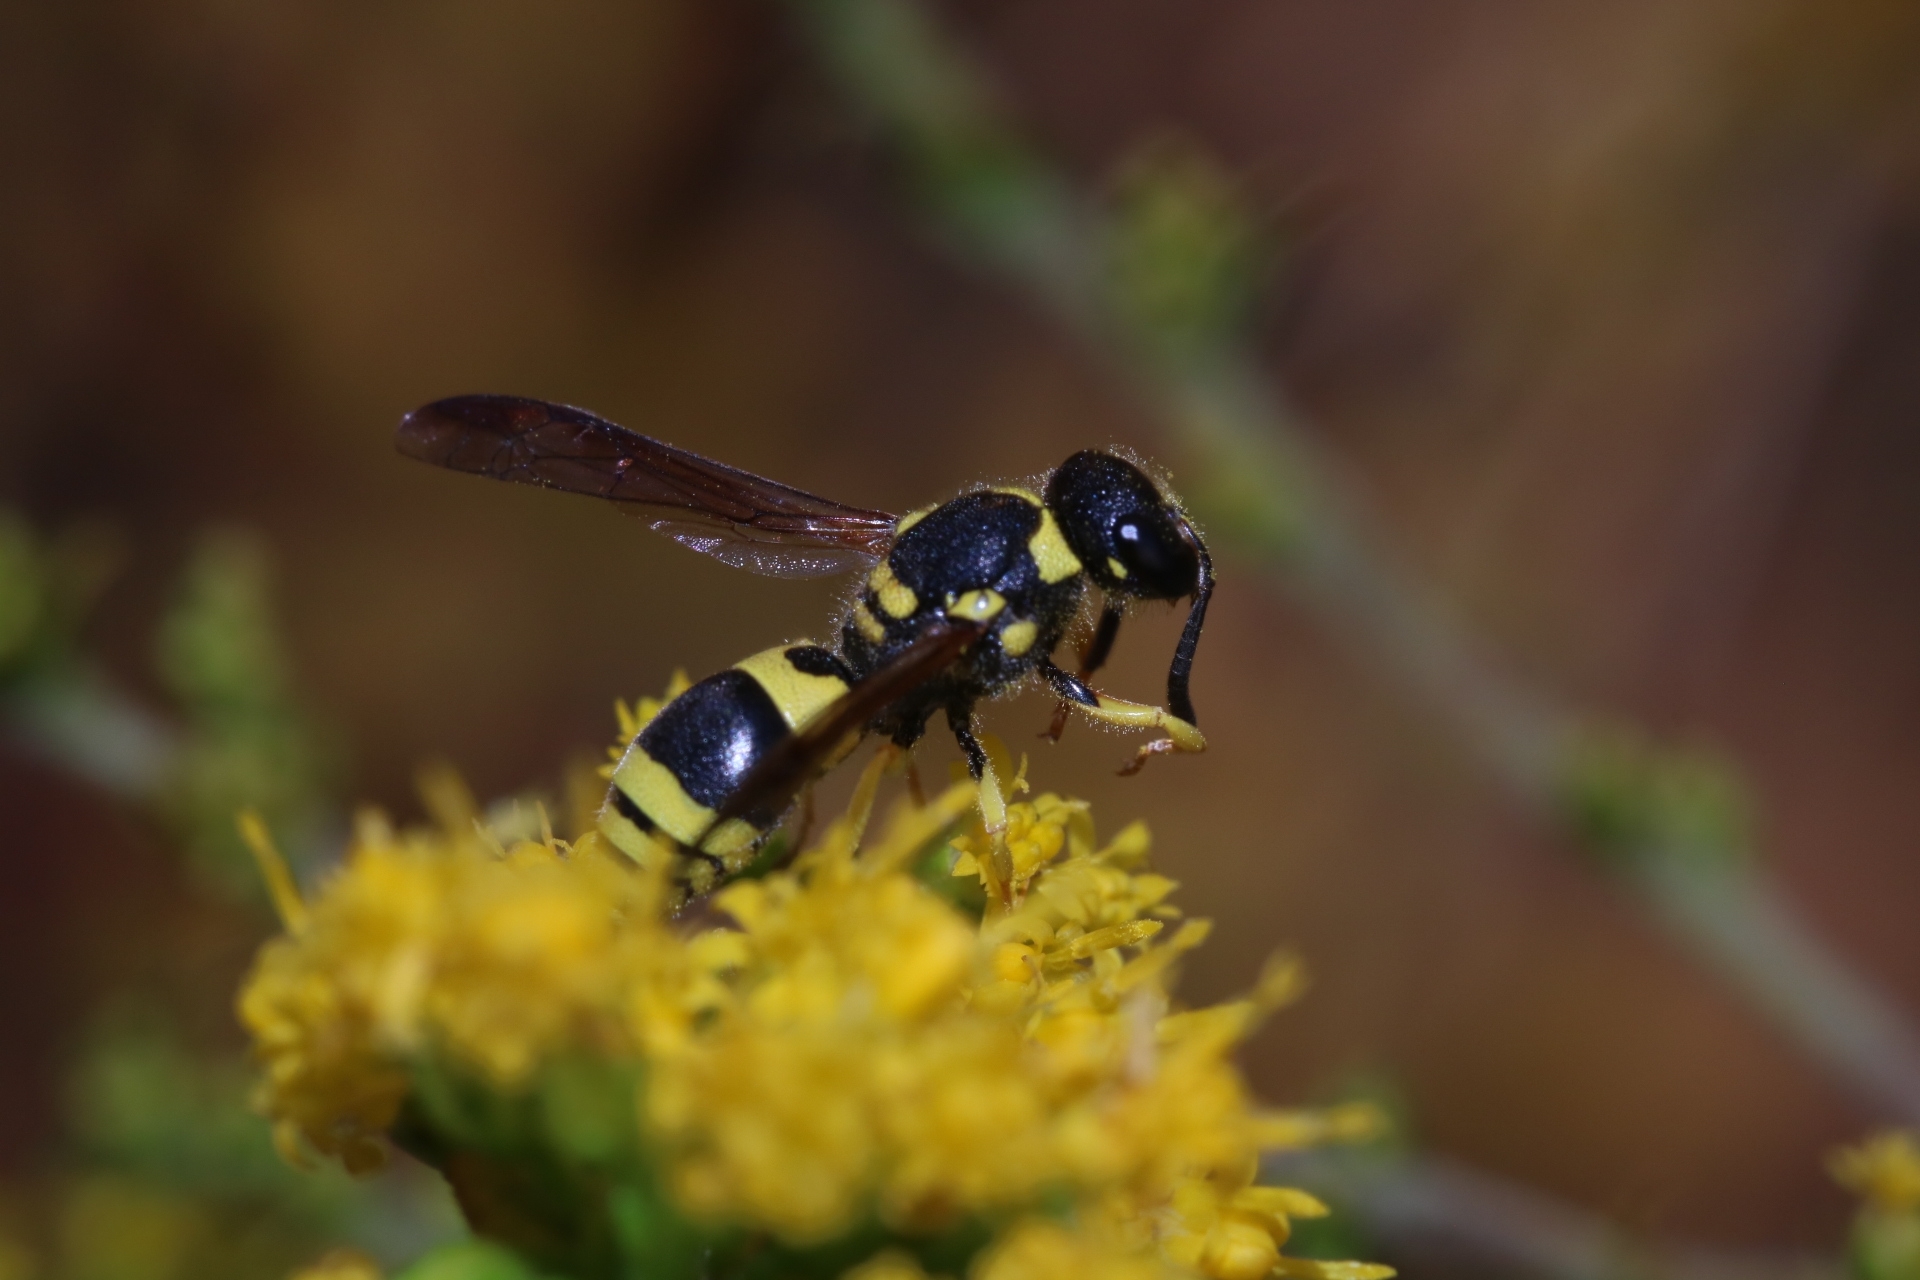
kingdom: Animalia
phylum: Arthropoda
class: Insecta
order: Hymenoptera
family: Vespidae
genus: Ancistrocerus
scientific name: Ancistrocerus gazella
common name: European tube wasp
